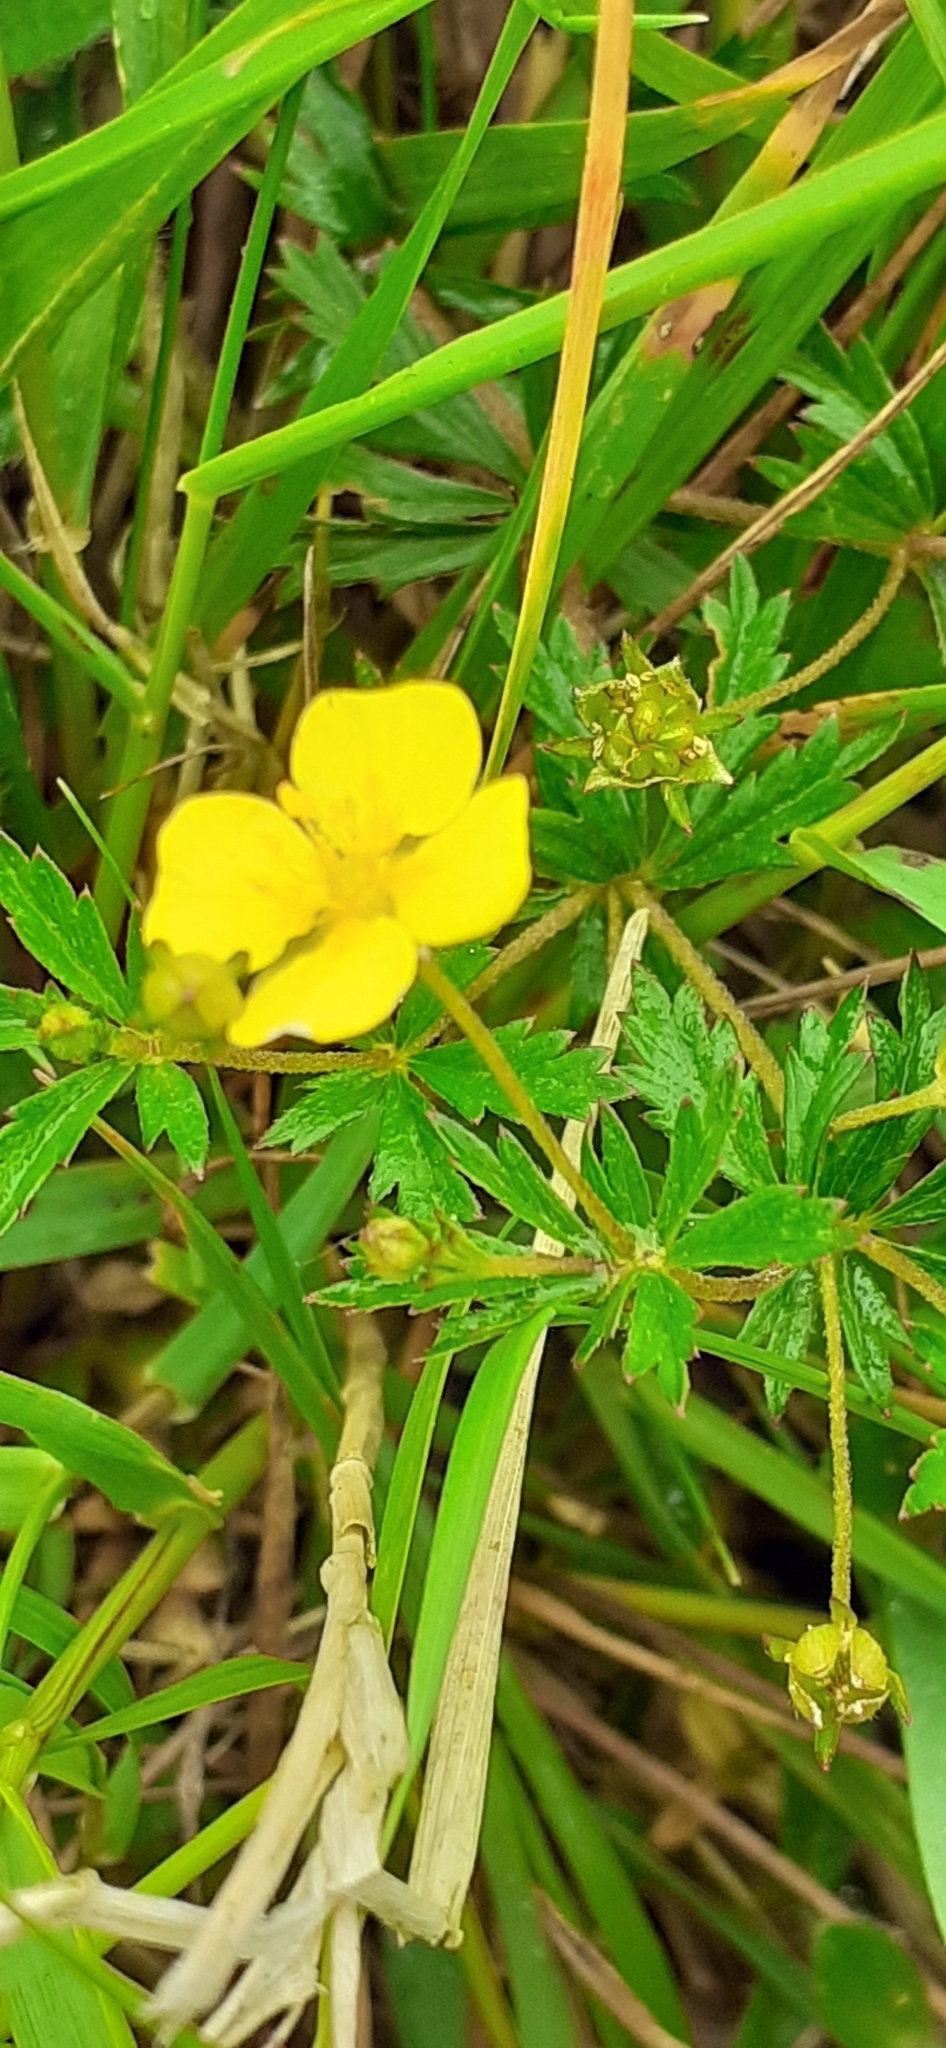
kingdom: Plantae
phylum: Tracheophyta
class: Magnoliopsida
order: Rosales
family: Rosaceae
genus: Potentilla
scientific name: Potentilla erecta
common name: Tormentil
